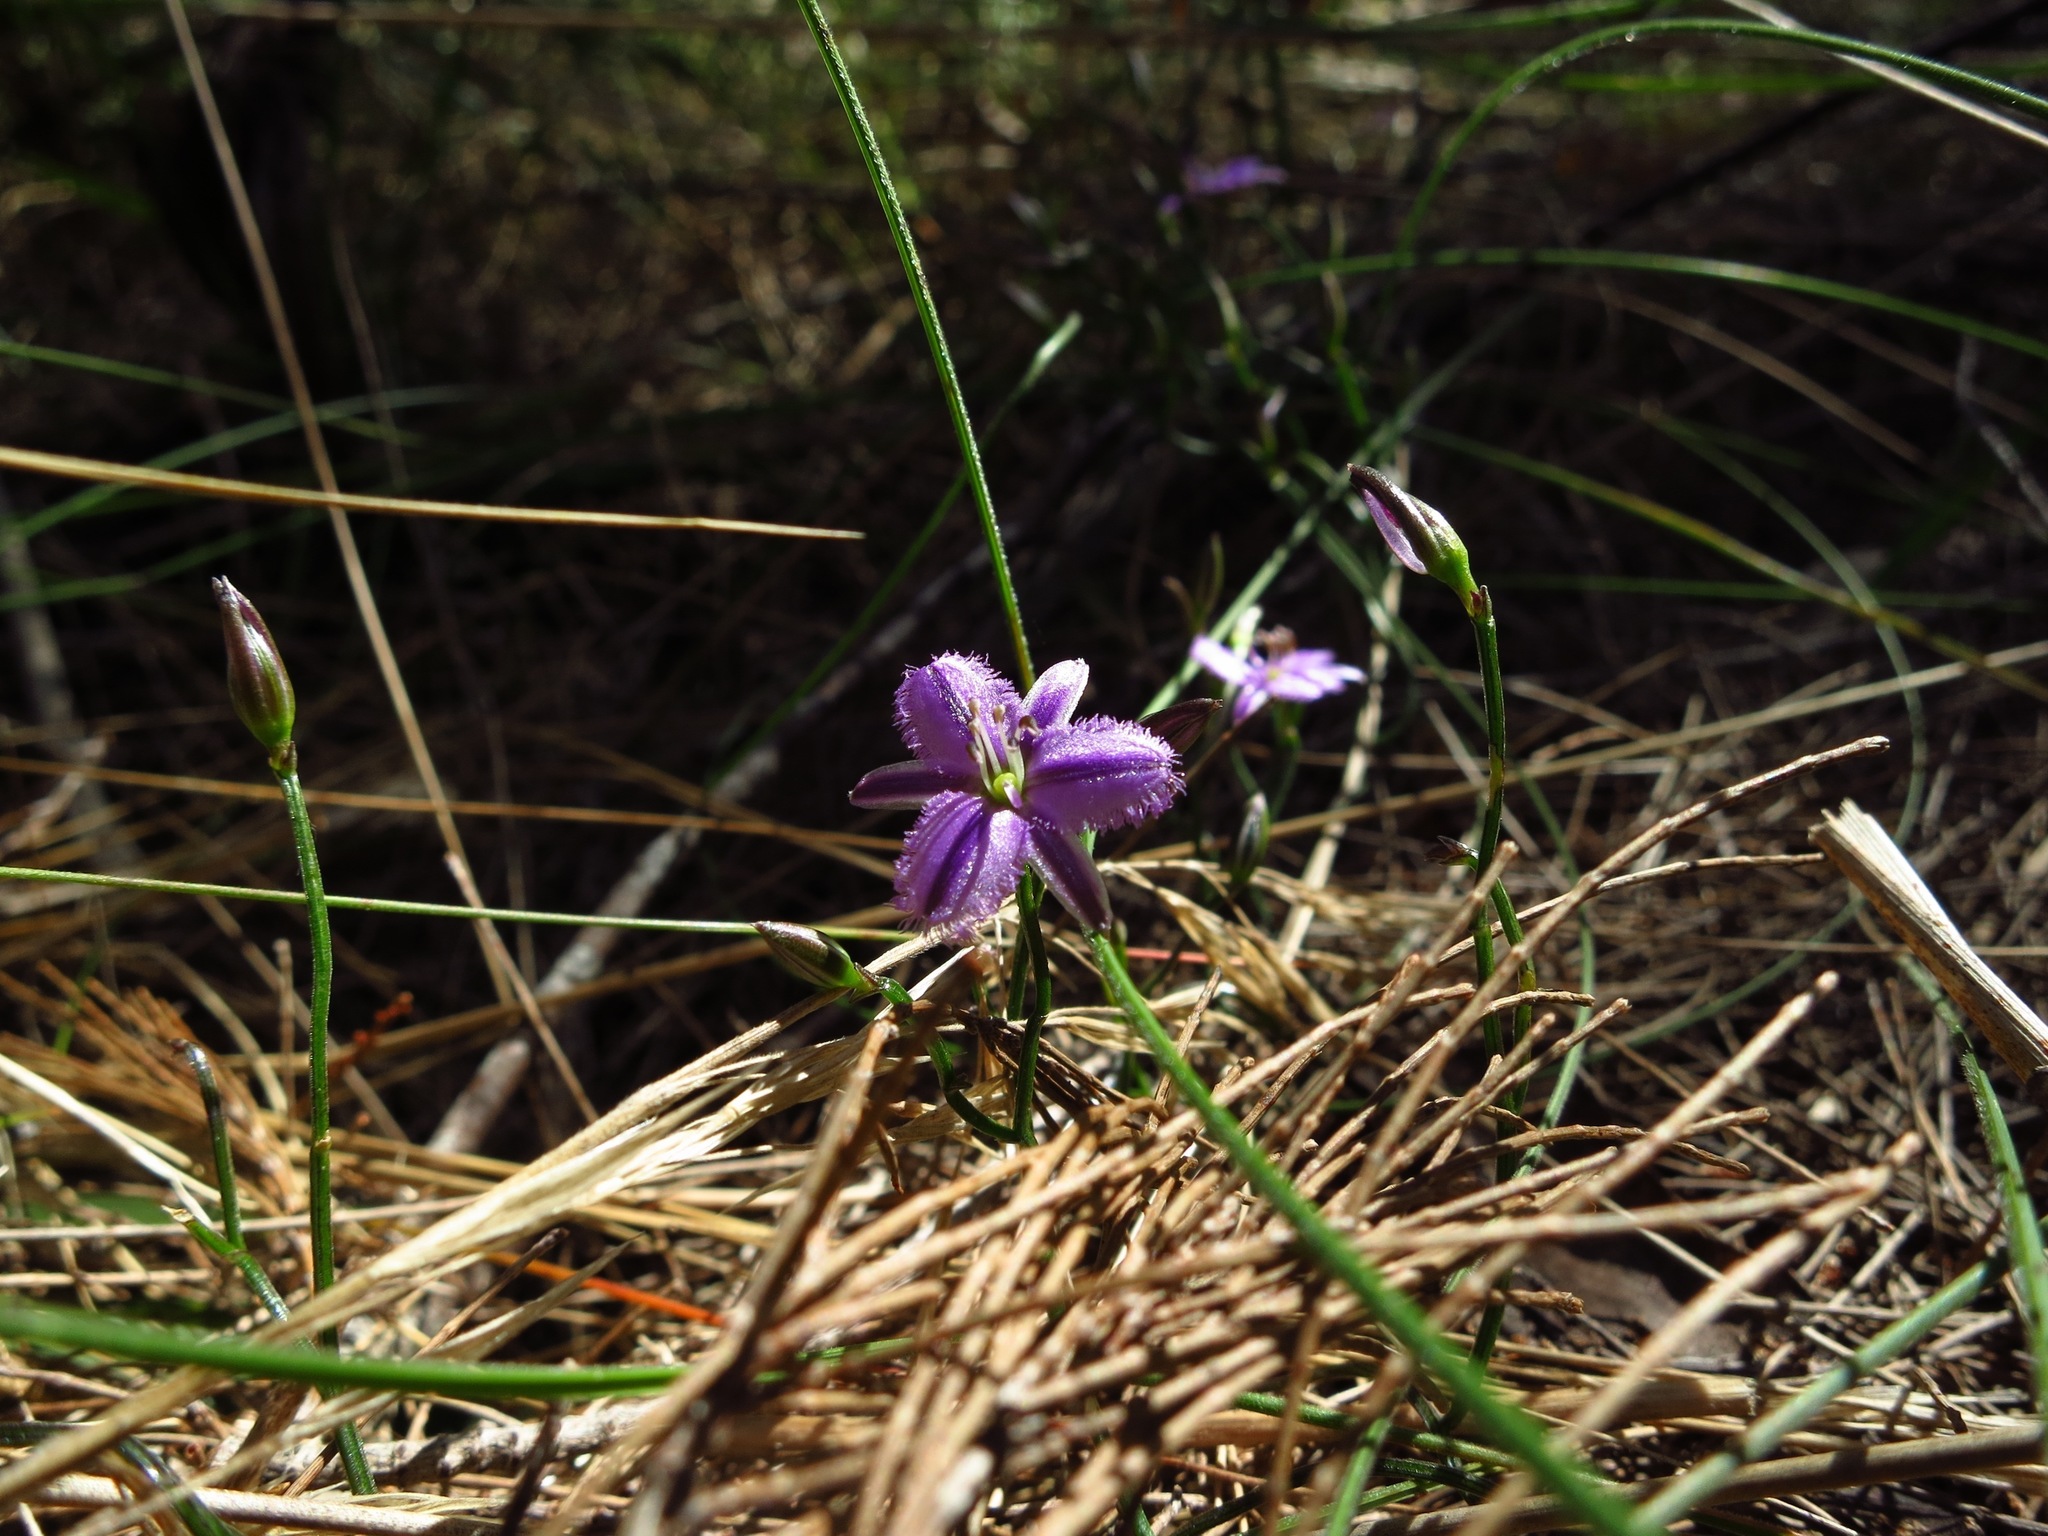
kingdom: Plantae
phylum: Tracheophyta
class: Liliopsida
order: Asparagales
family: Asparagaceae
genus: Thysanotus
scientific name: Thysanotus patersonii
